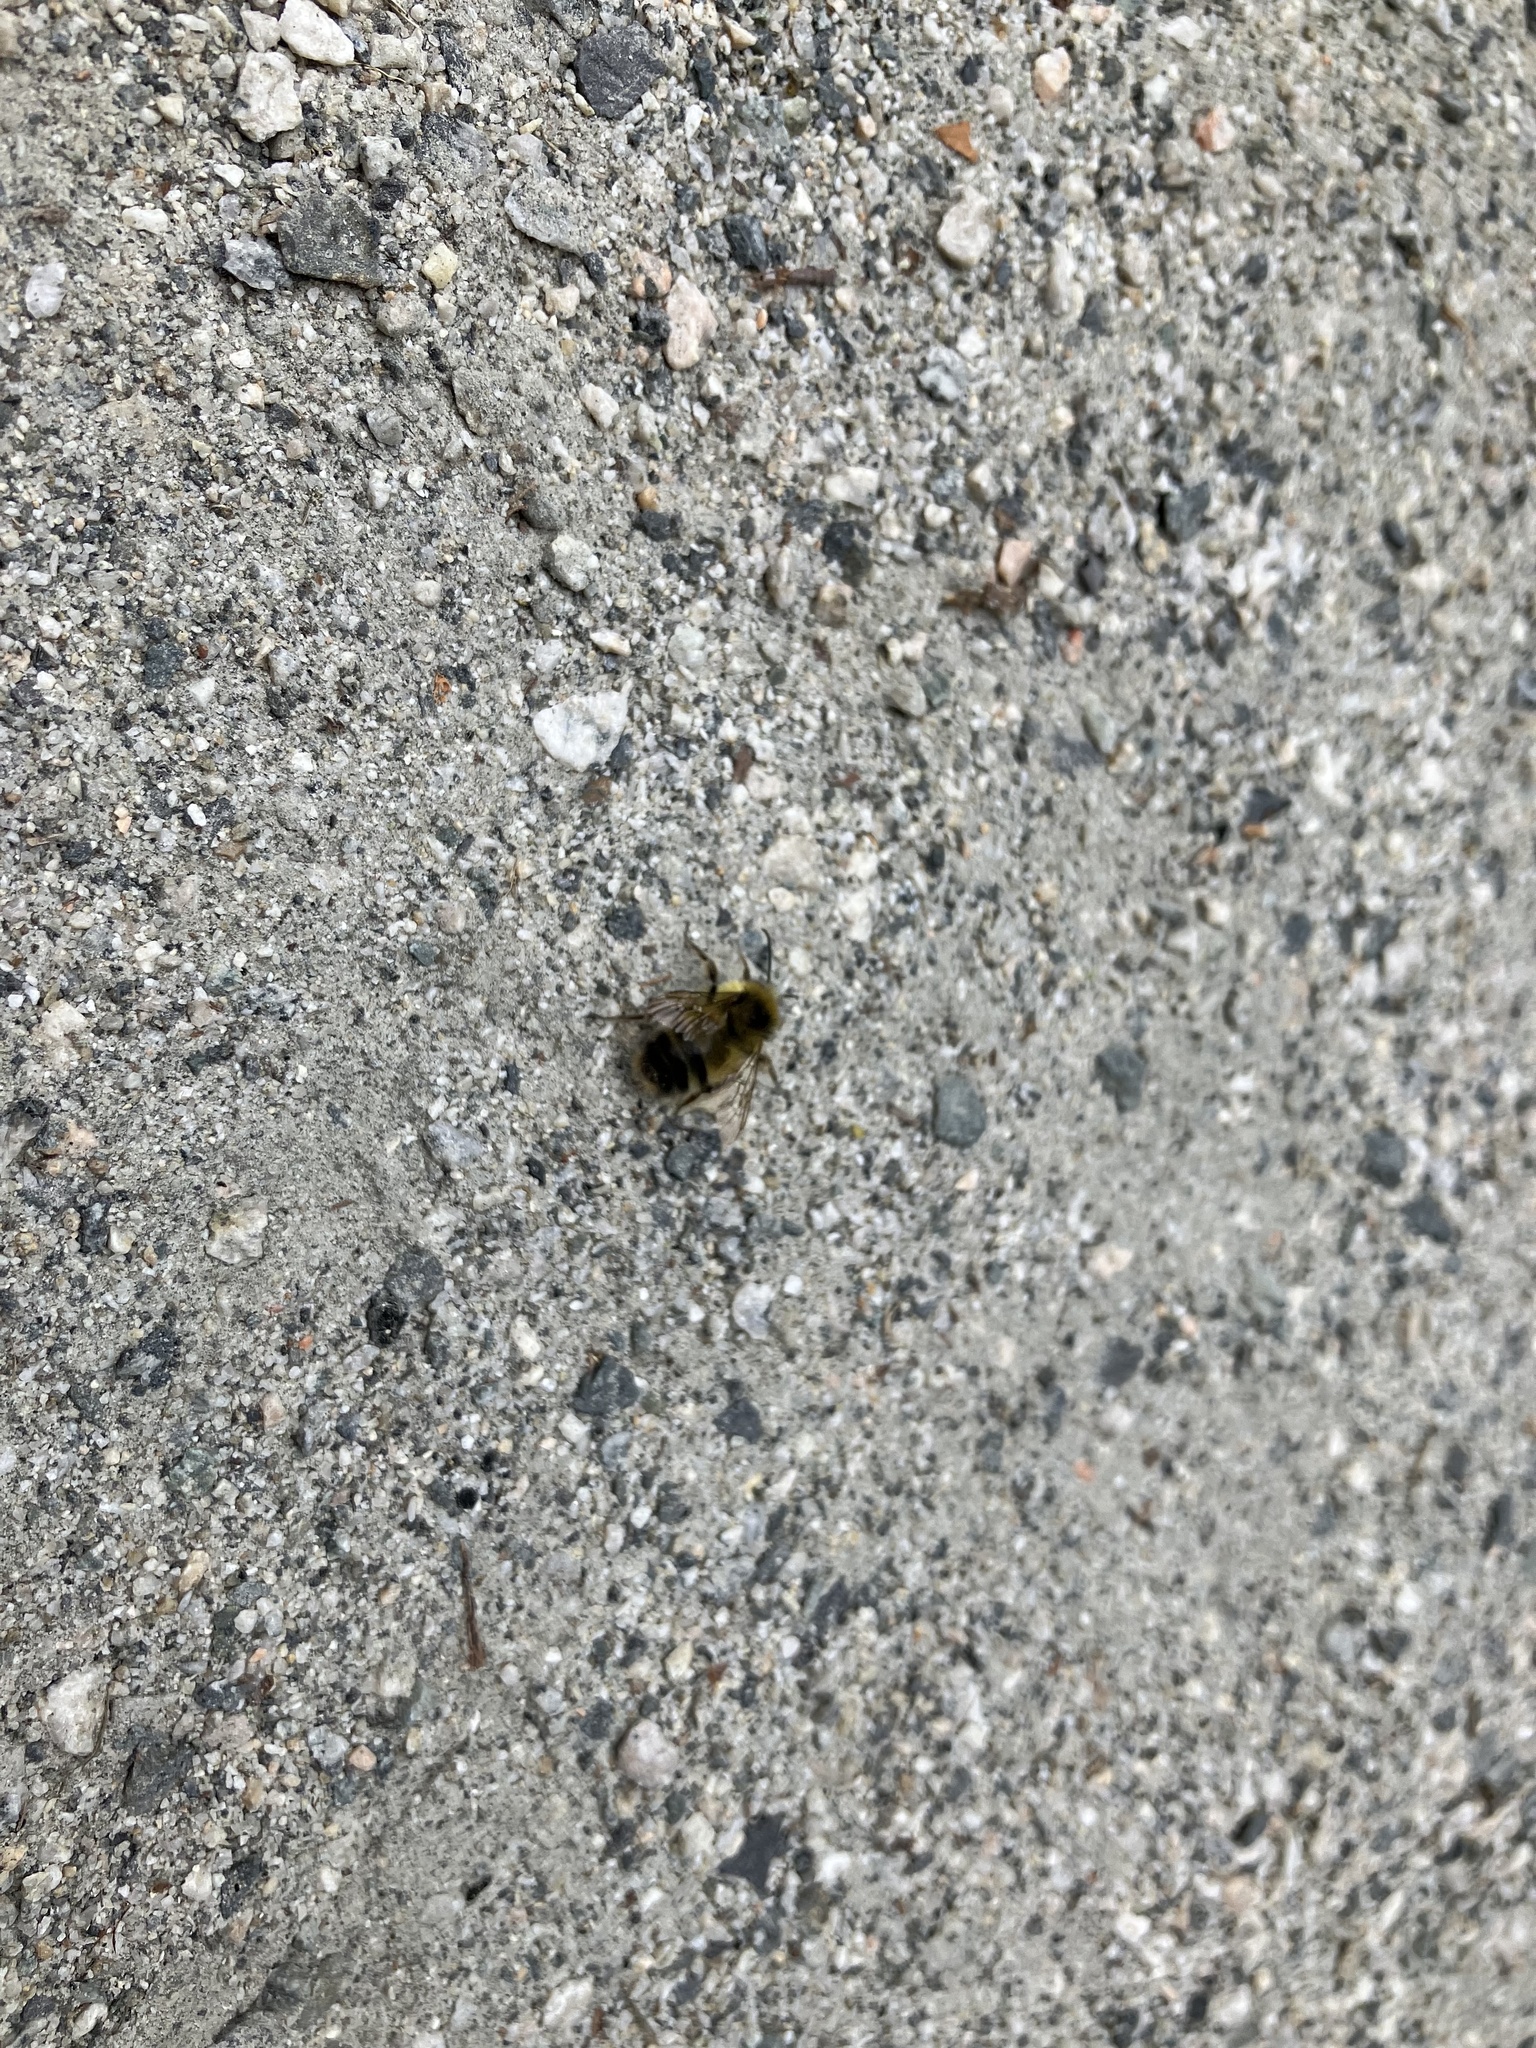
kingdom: Animalia
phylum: Arthropoda
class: Insecta
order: Hymenoptera
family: Apidae
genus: Bombus
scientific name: Bombus sitkensis
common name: Sitka bumble bee
